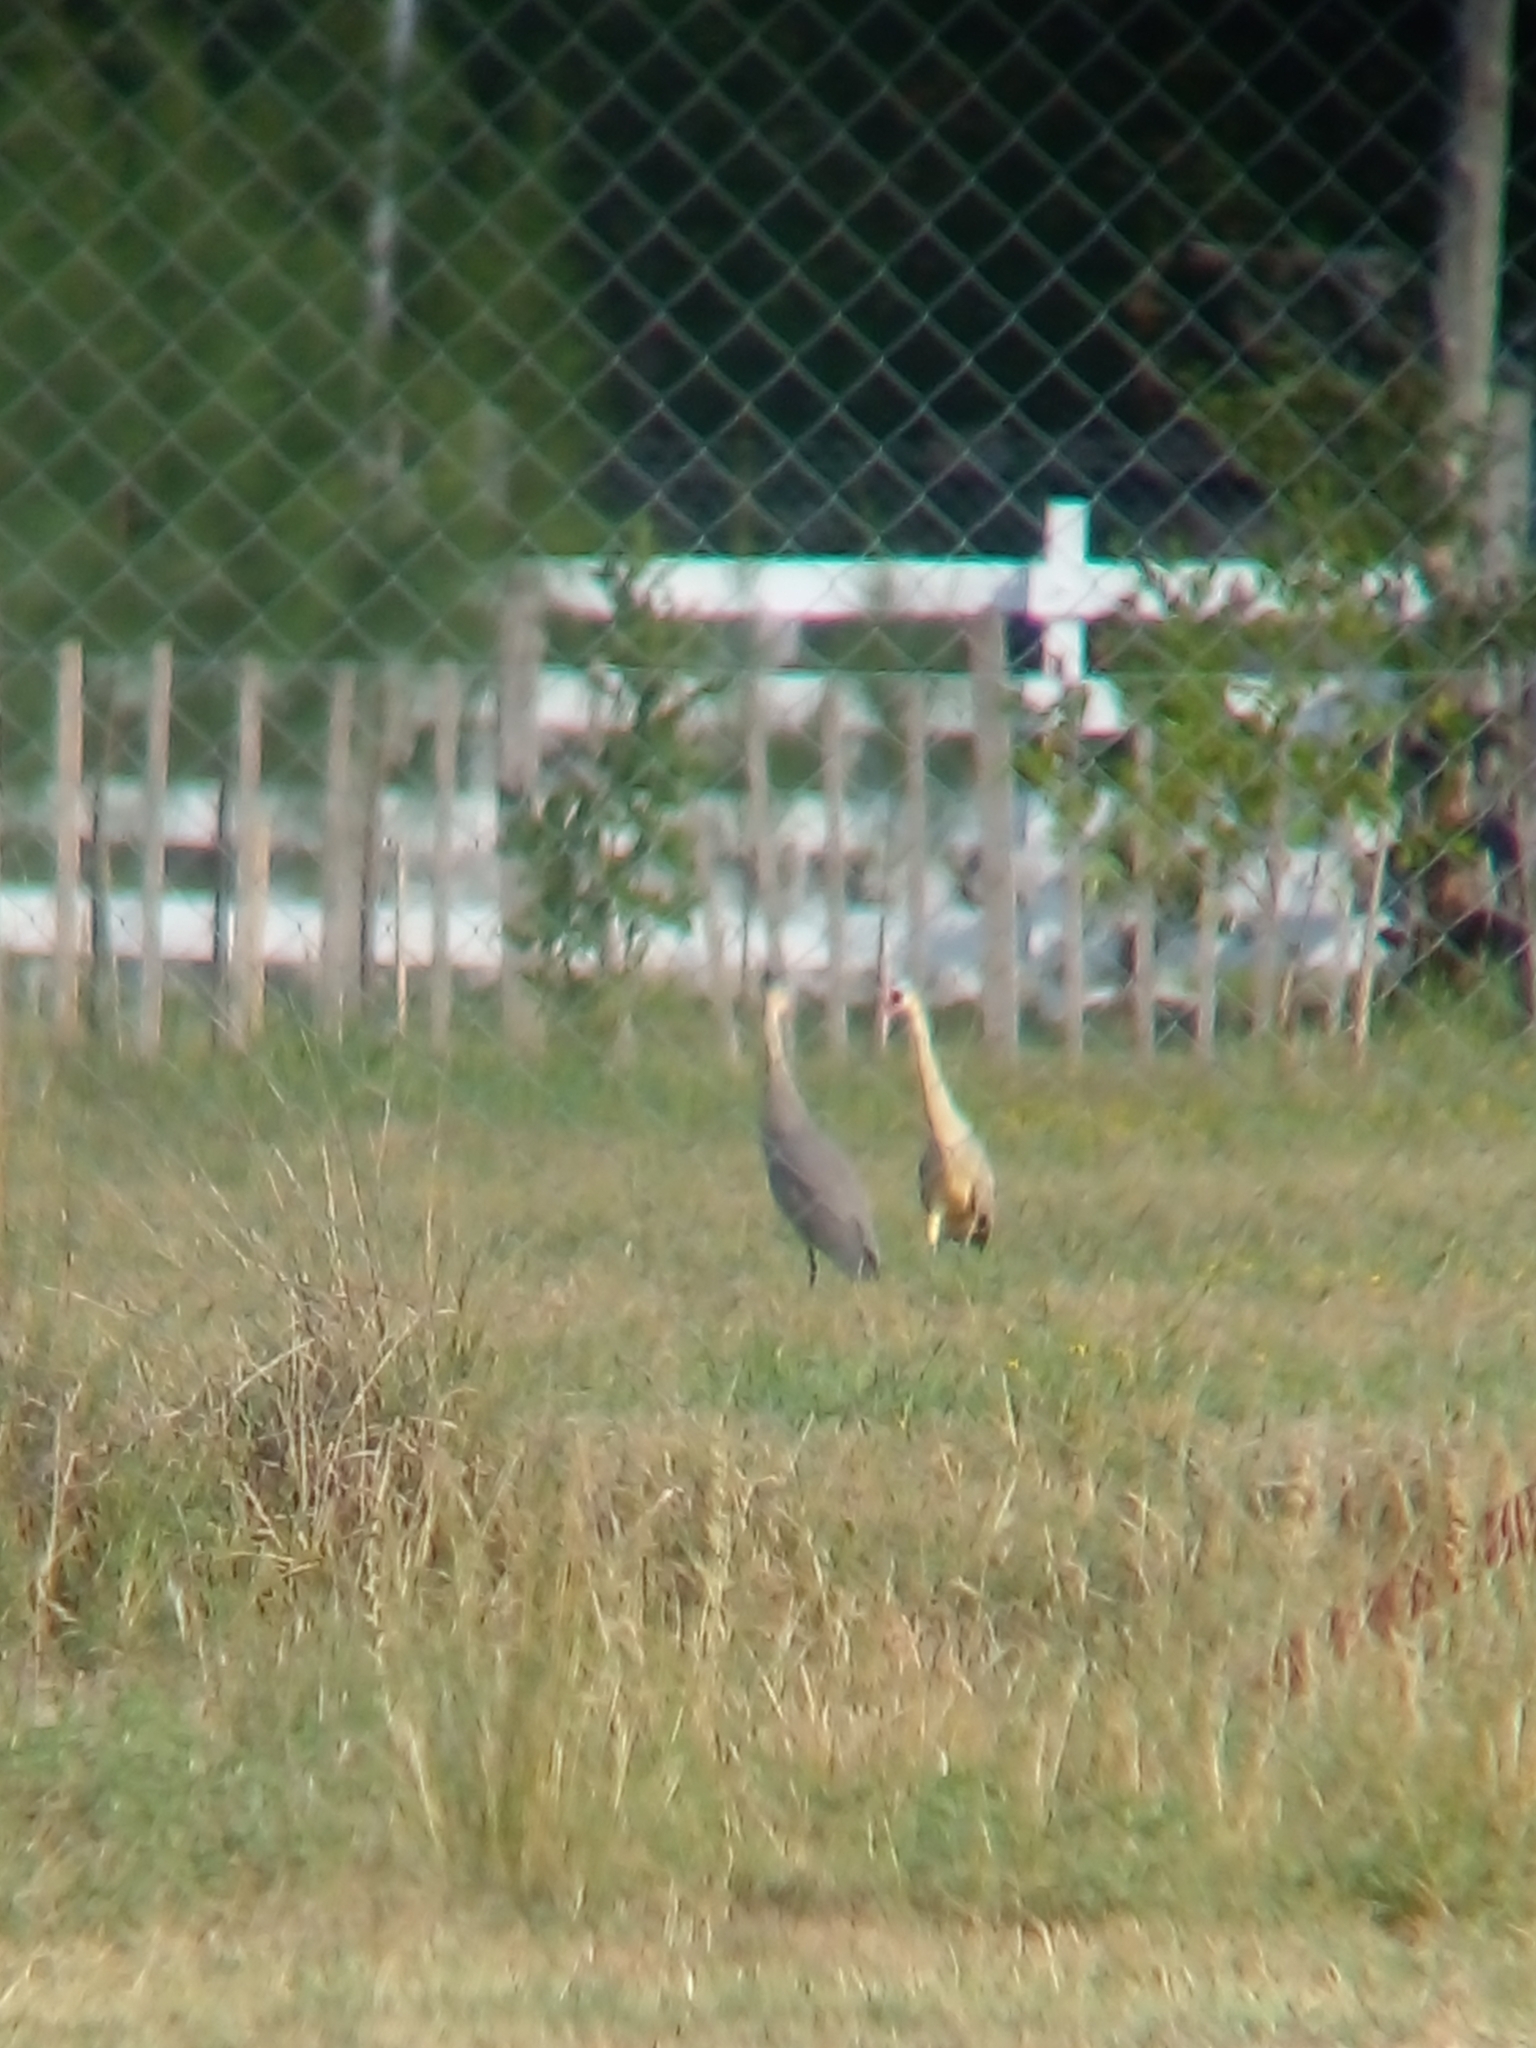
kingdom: Animalia
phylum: Chordata
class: Aves
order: Pelecaniformes
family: Ardeidae
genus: Syrigma
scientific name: Syrigma sibilatrix
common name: Whistling heron
